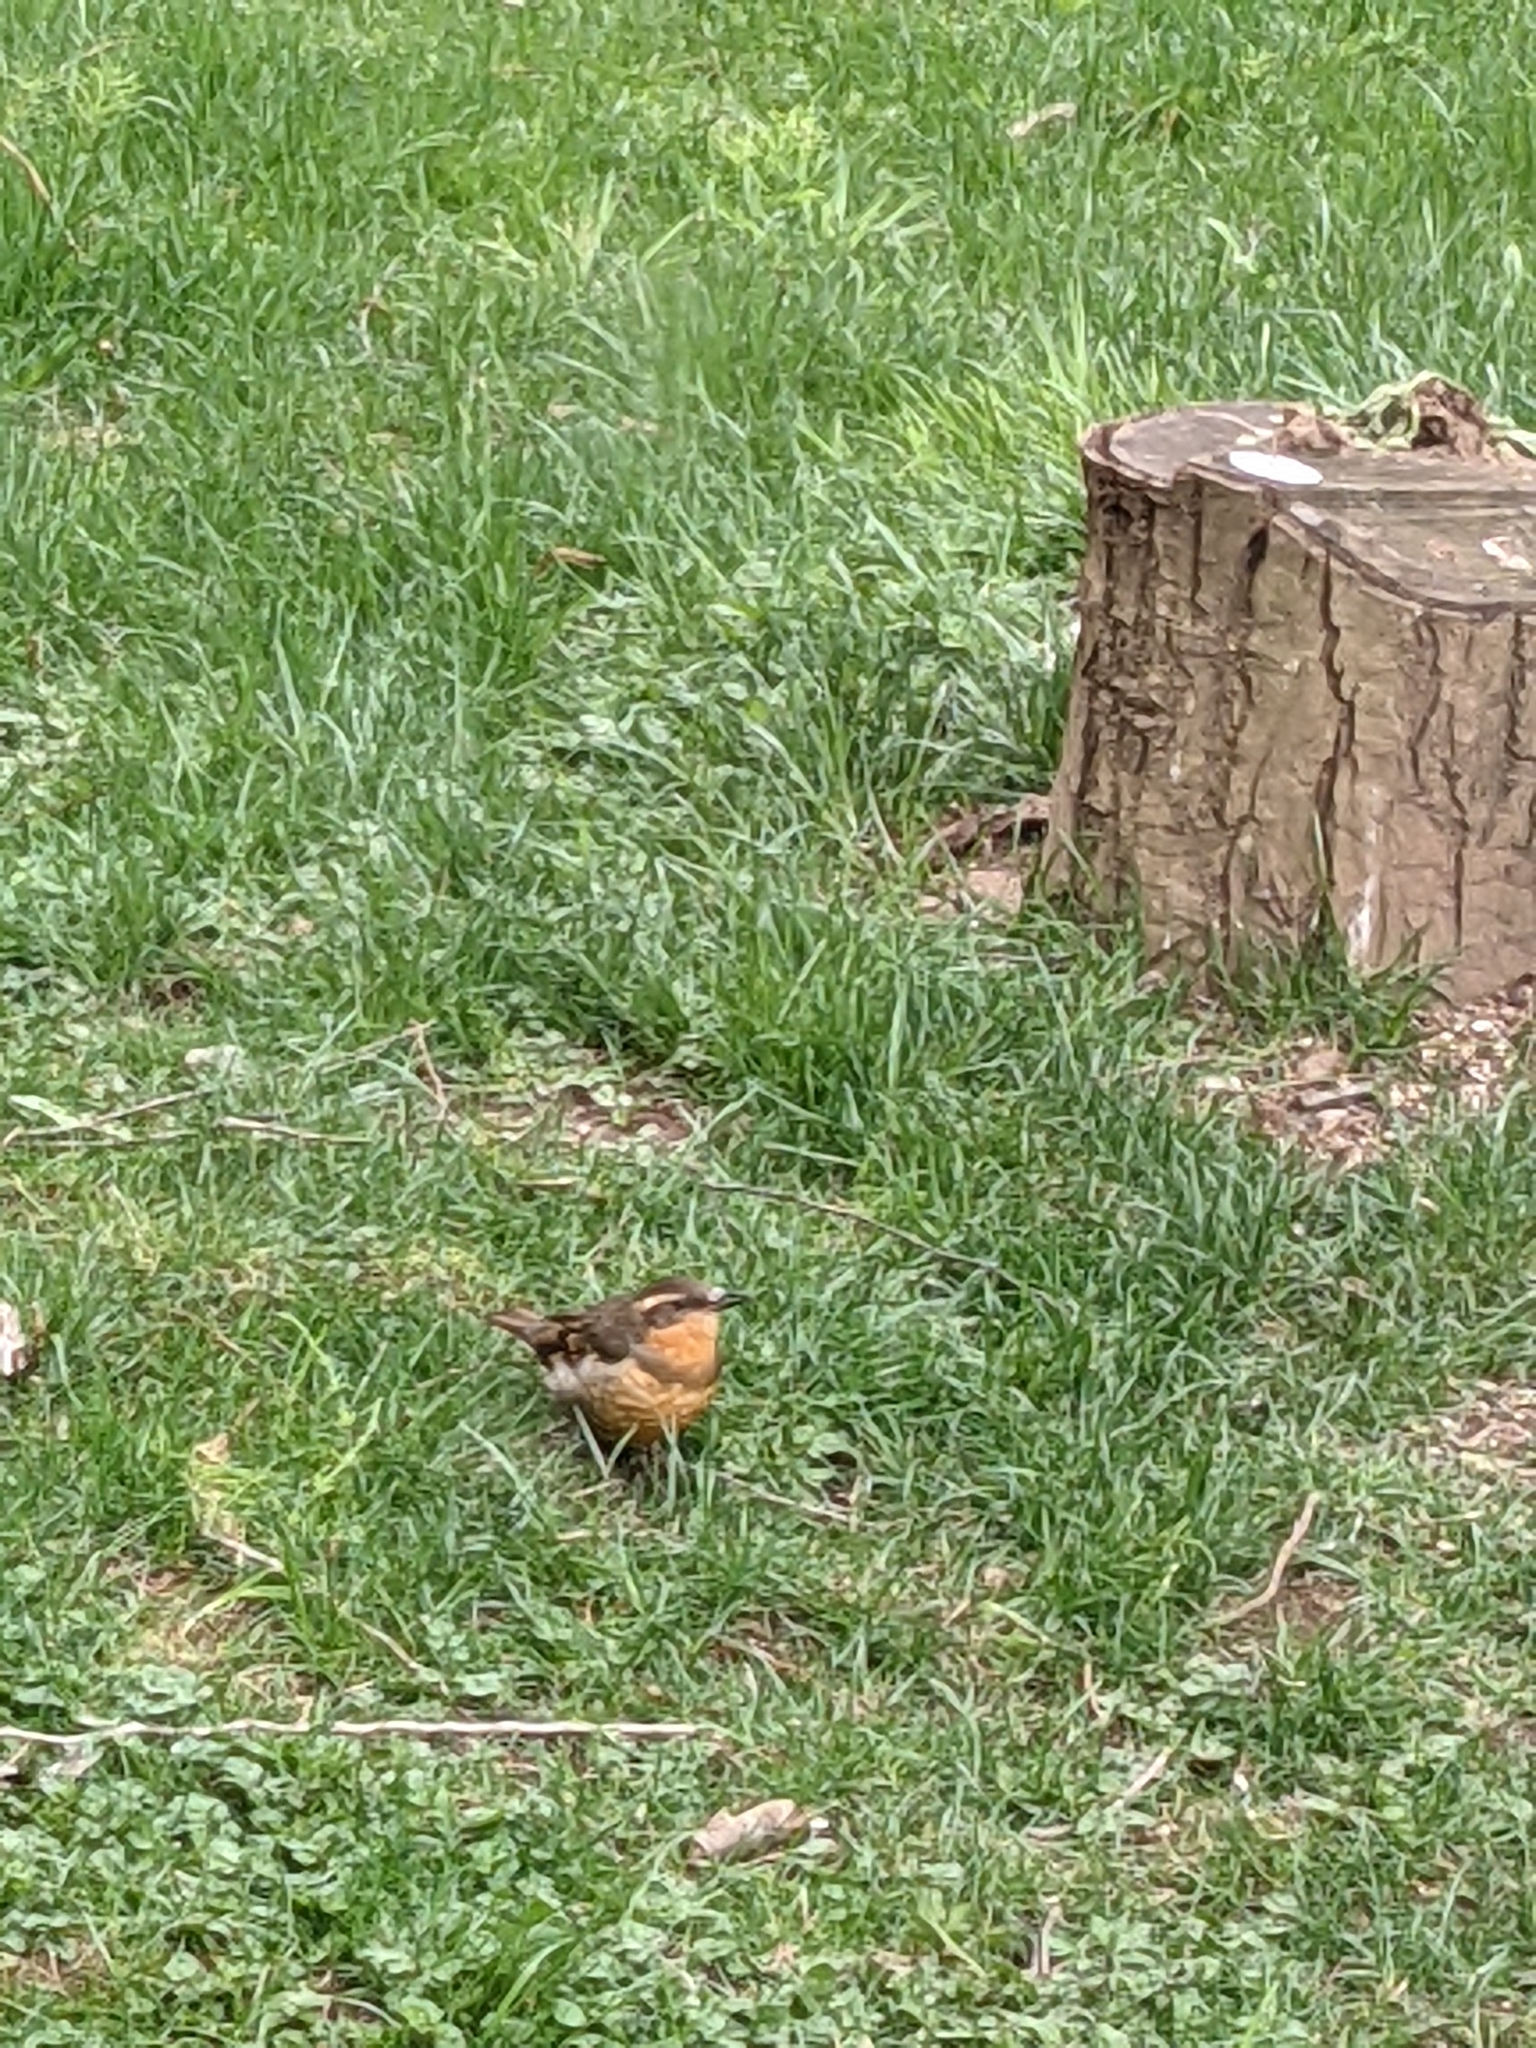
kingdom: Animalia
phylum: Chordata
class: Aves
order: Passeriformes
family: Turdidae
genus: Ixoreus
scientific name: Ixoreus naevius
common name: Varied thrush
